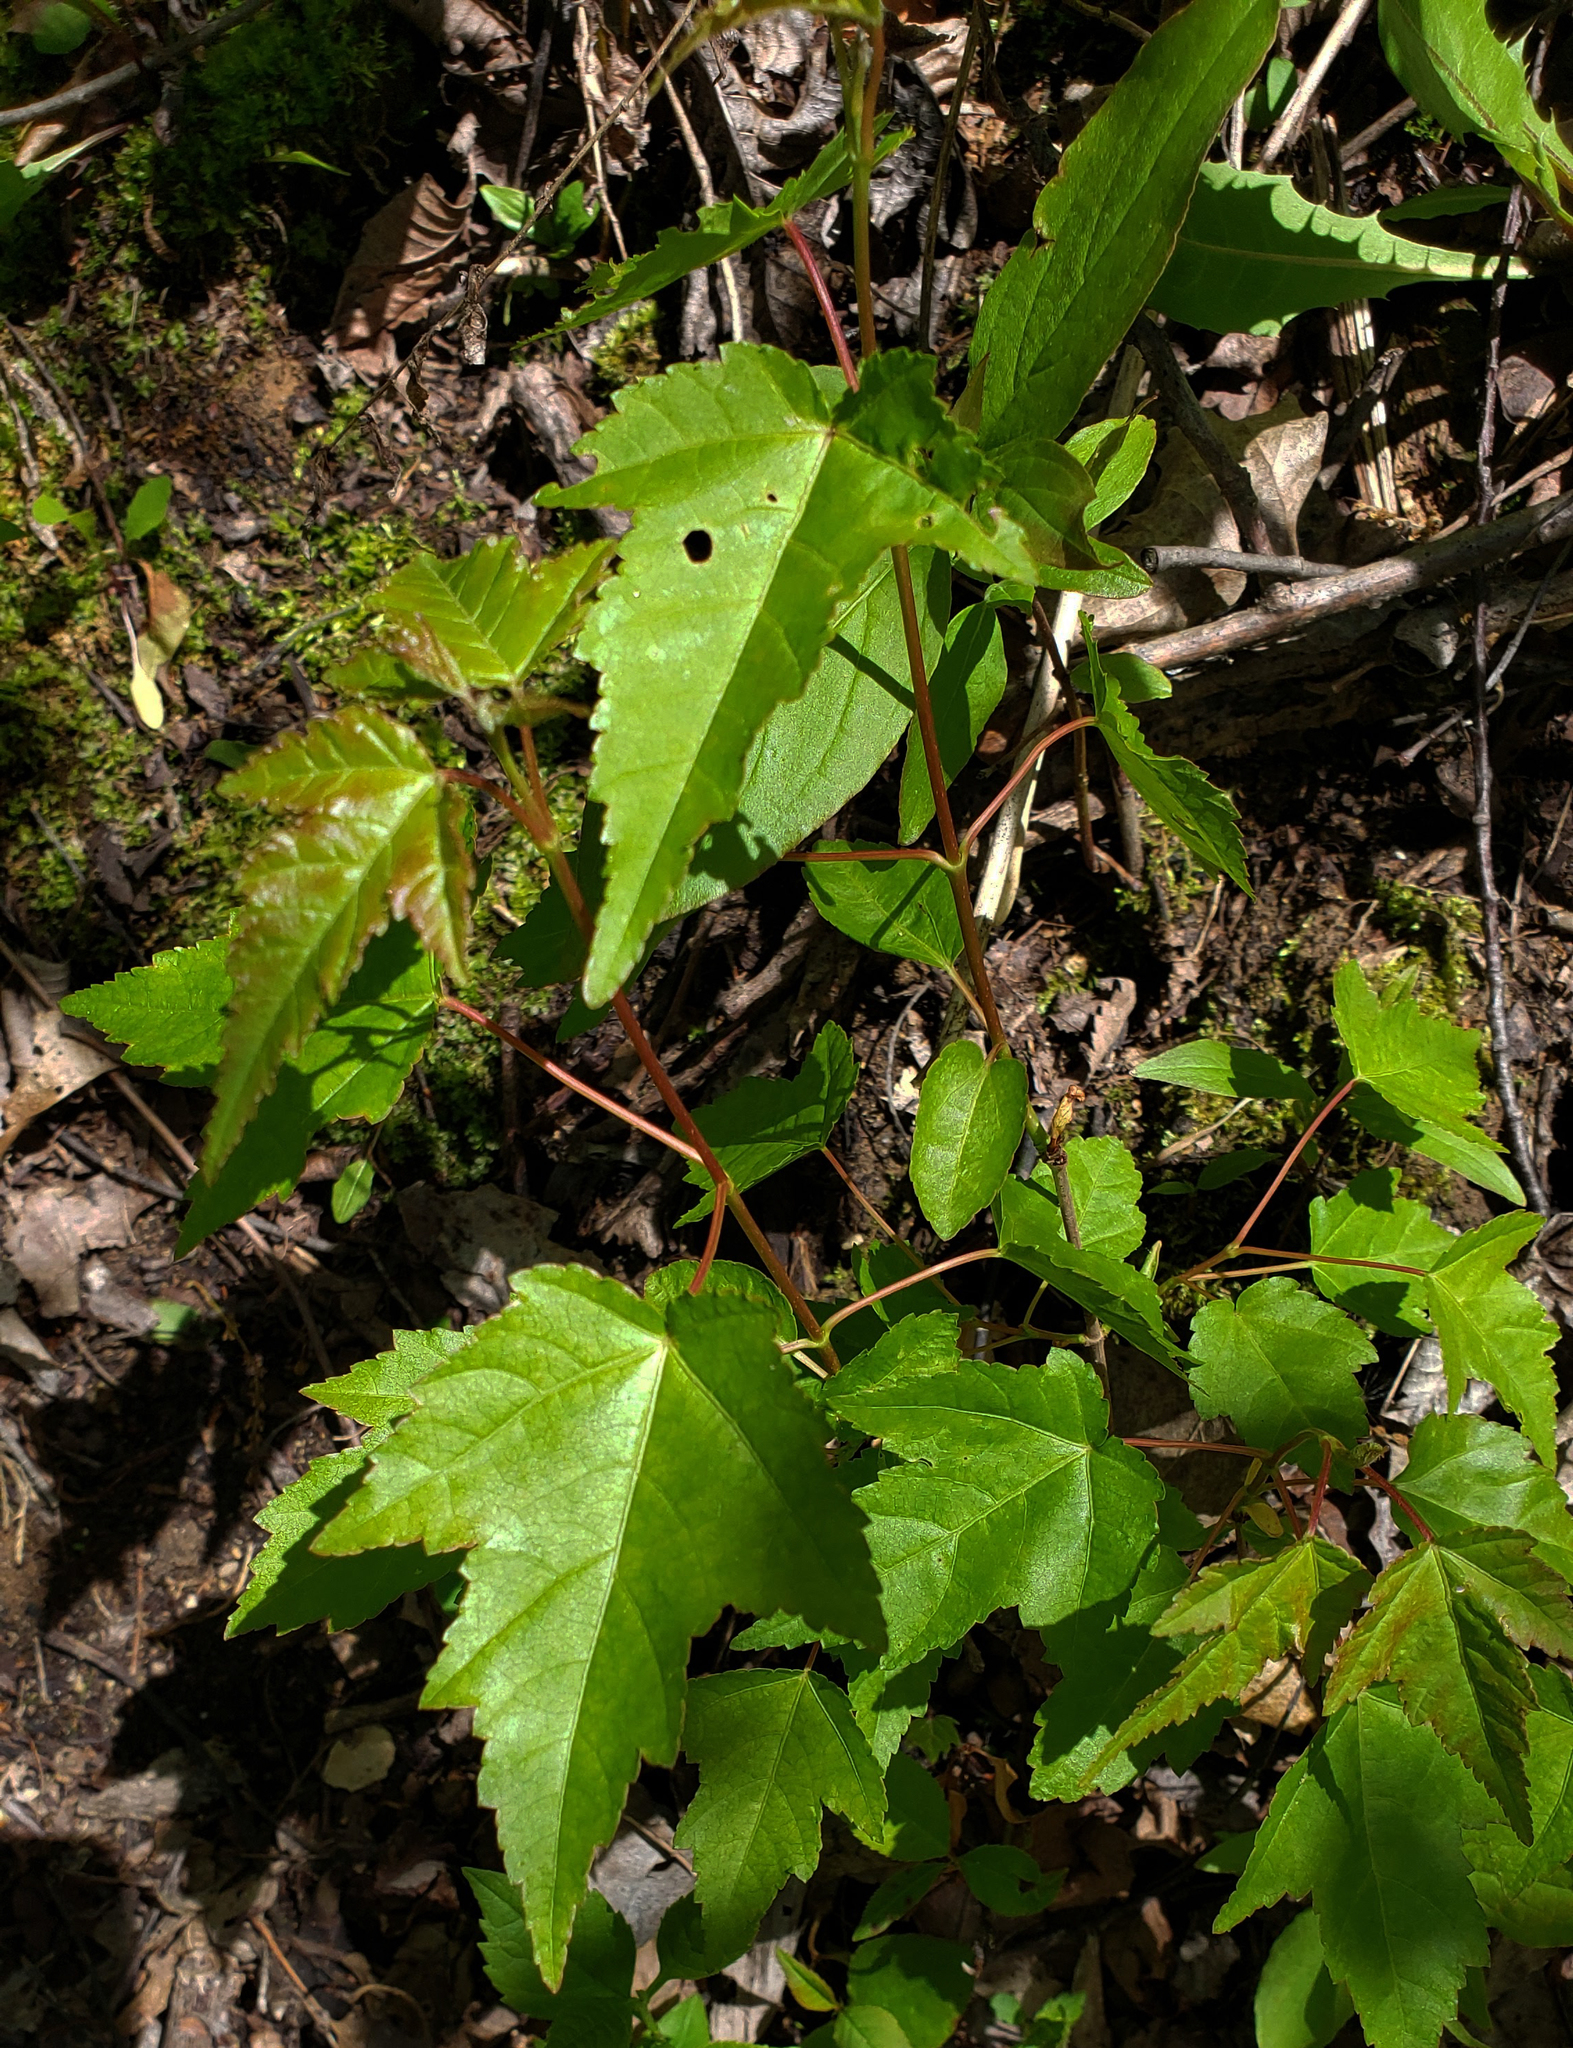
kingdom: Plantae
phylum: Tracheophyta
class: Magnoliopsida
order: Sapindales
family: Sapindaceae
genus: Acer
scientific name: Acer tataricum
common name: Tartar maple
